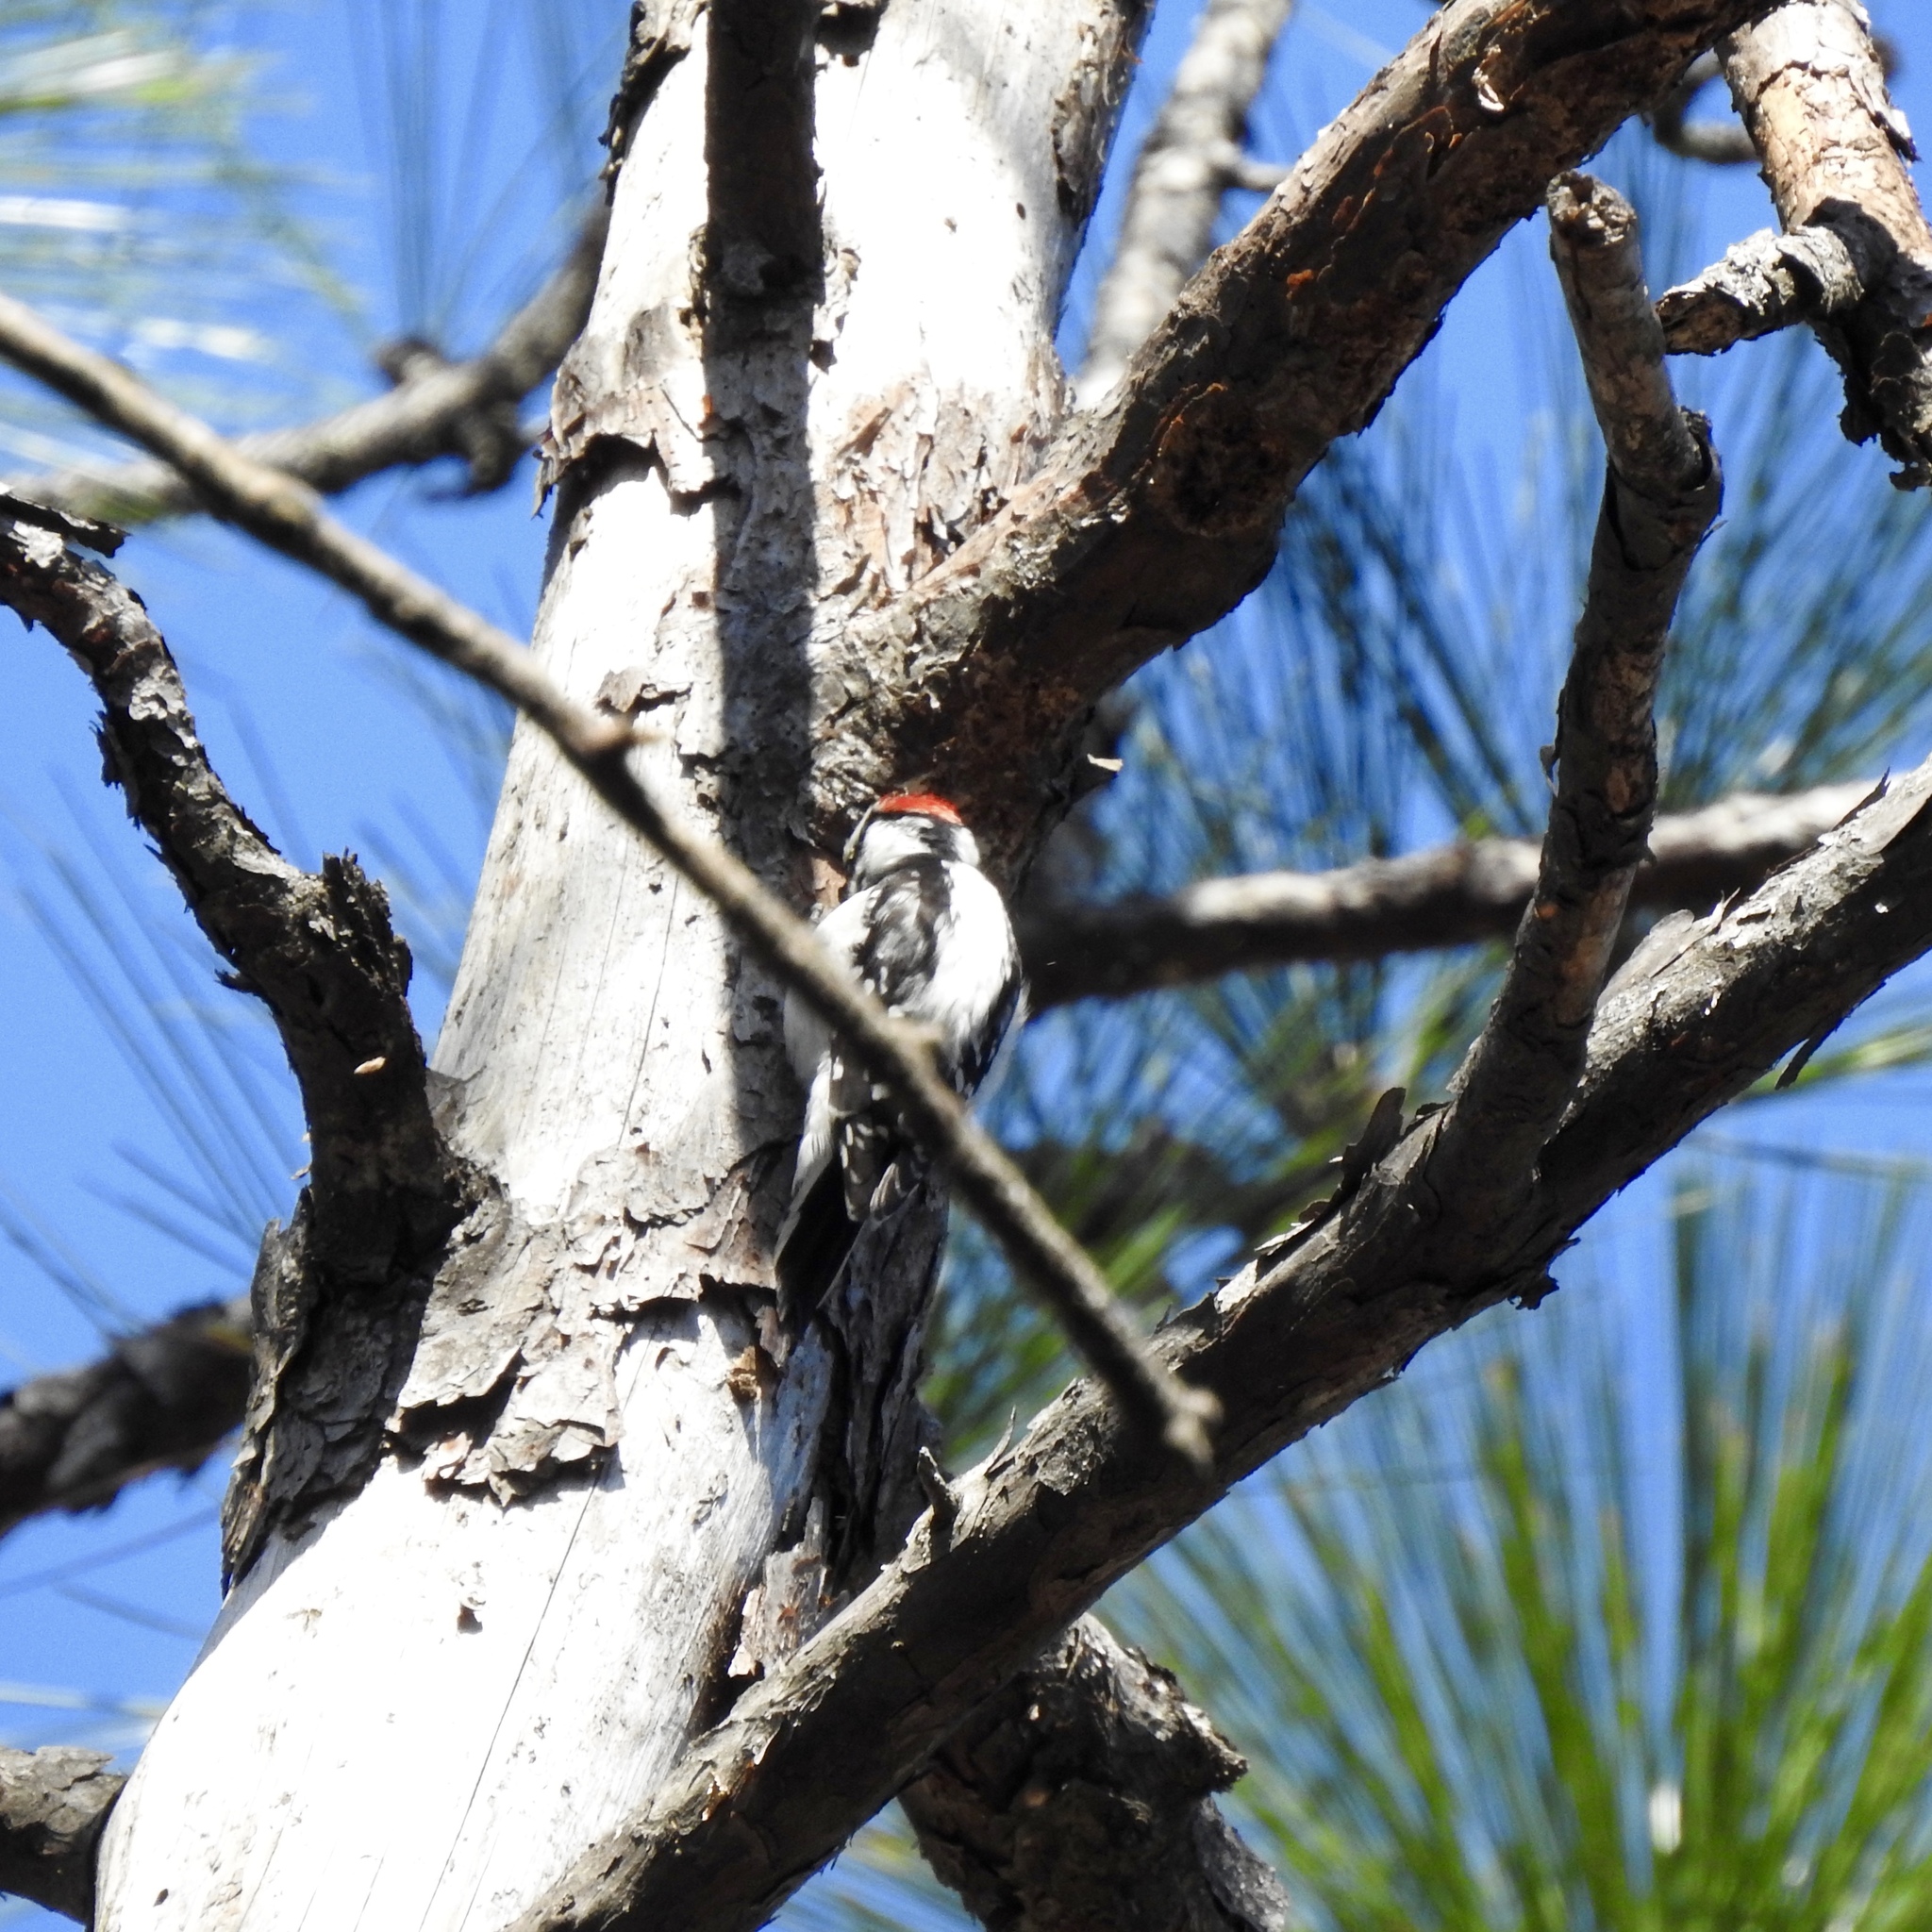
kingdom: Animalia
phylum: Chordata
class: Aves
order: Piciformes
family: Picidae
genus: Dryobates
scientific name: Dryobates pubescens
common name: Downy woodpecker
